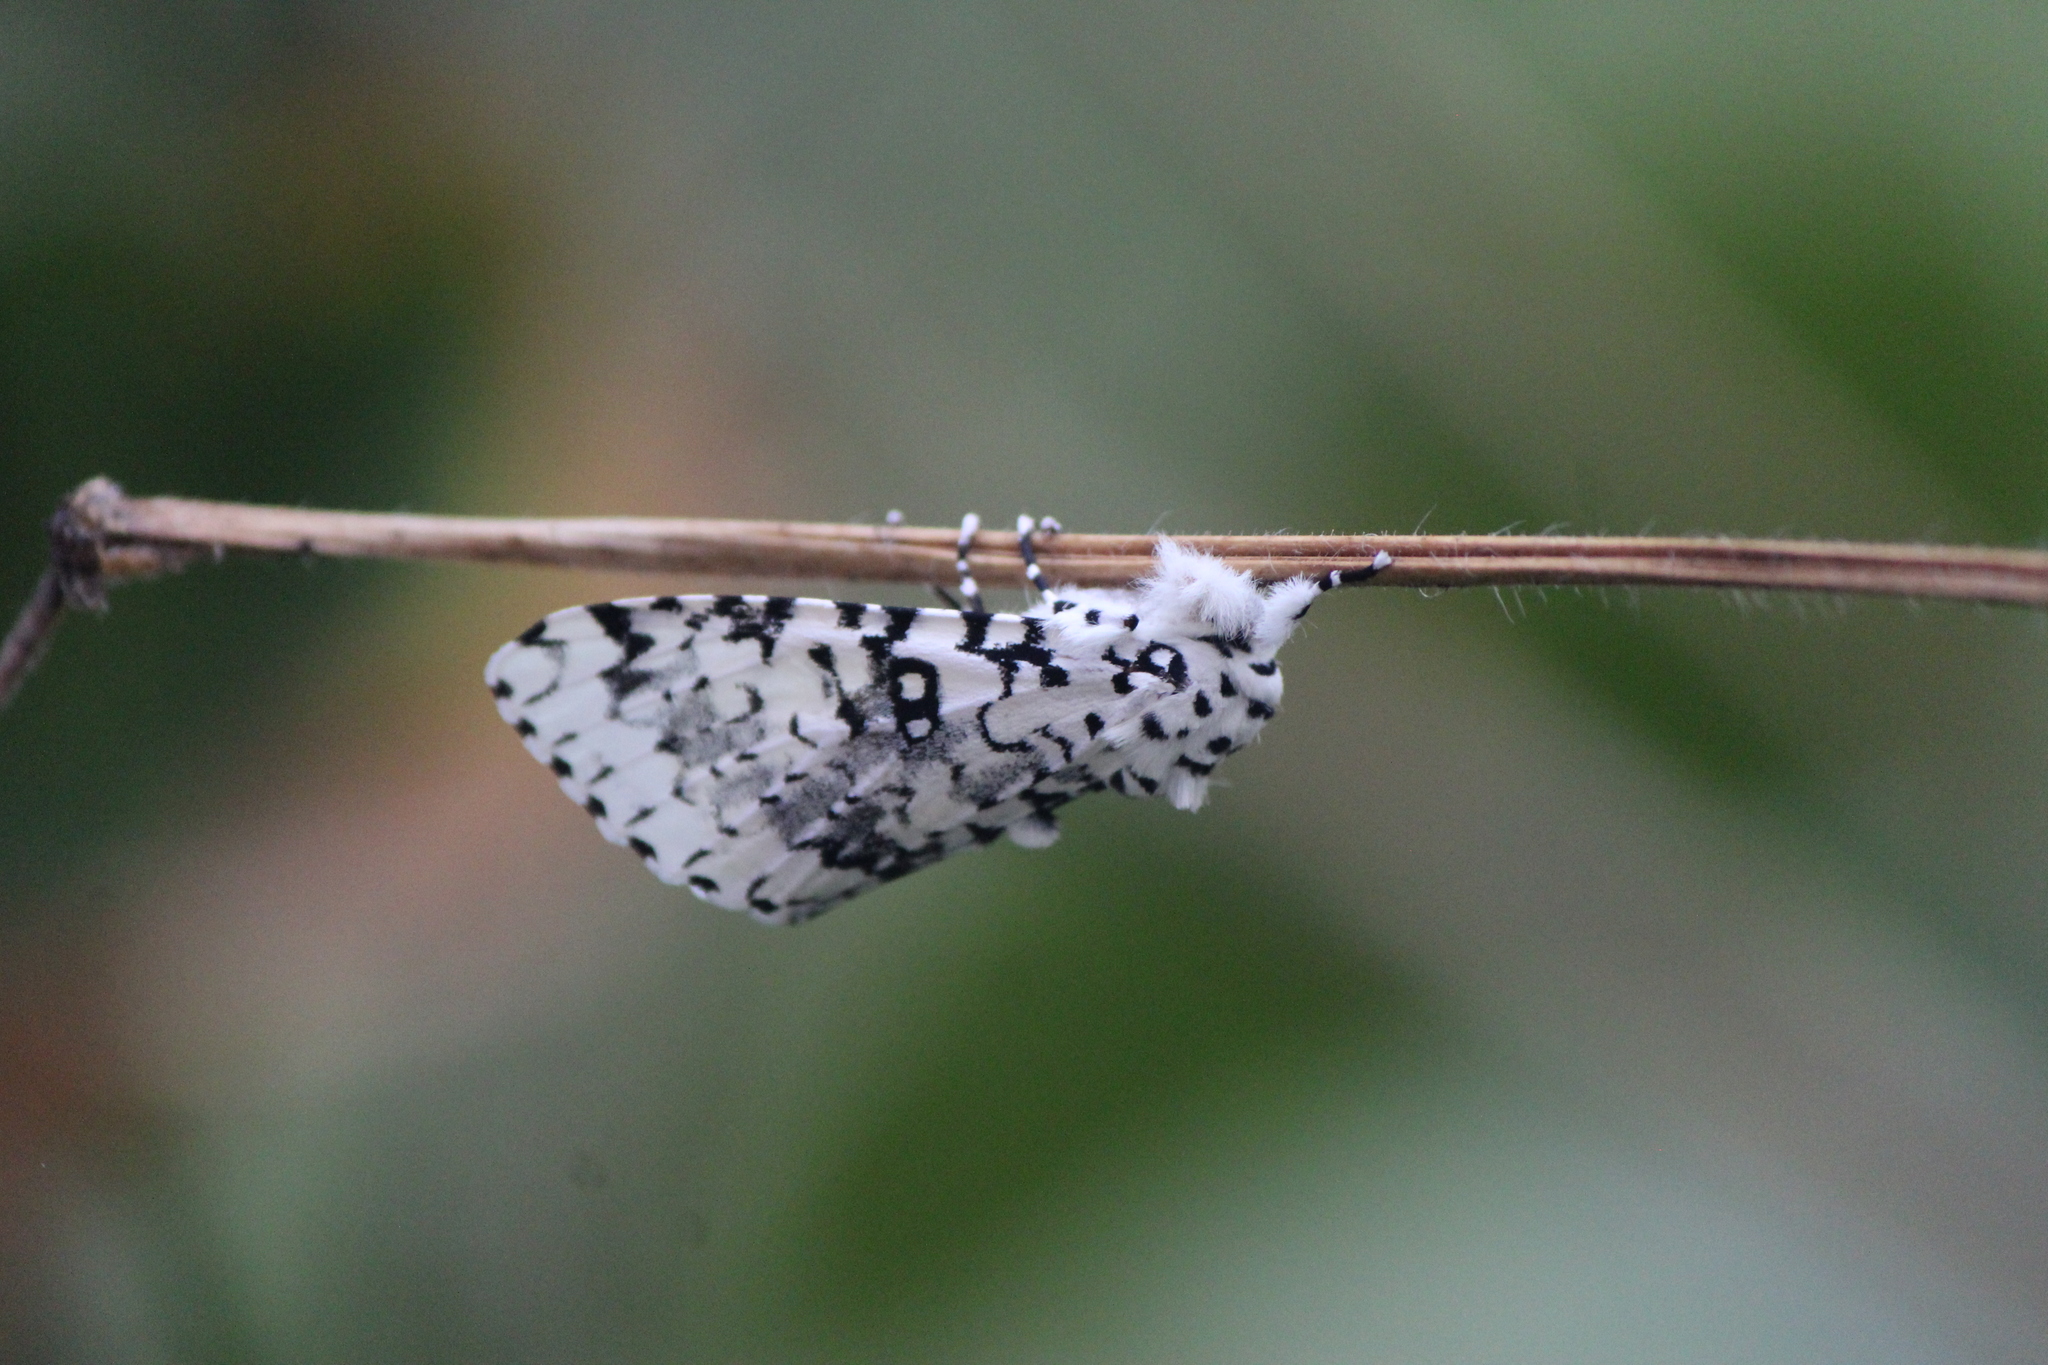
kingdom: Animalia
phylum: Arthropoda
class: Insecta
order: Lepidoptera
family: Noctuidae
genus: Lichnoptera
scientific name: Lichnoptera decora
